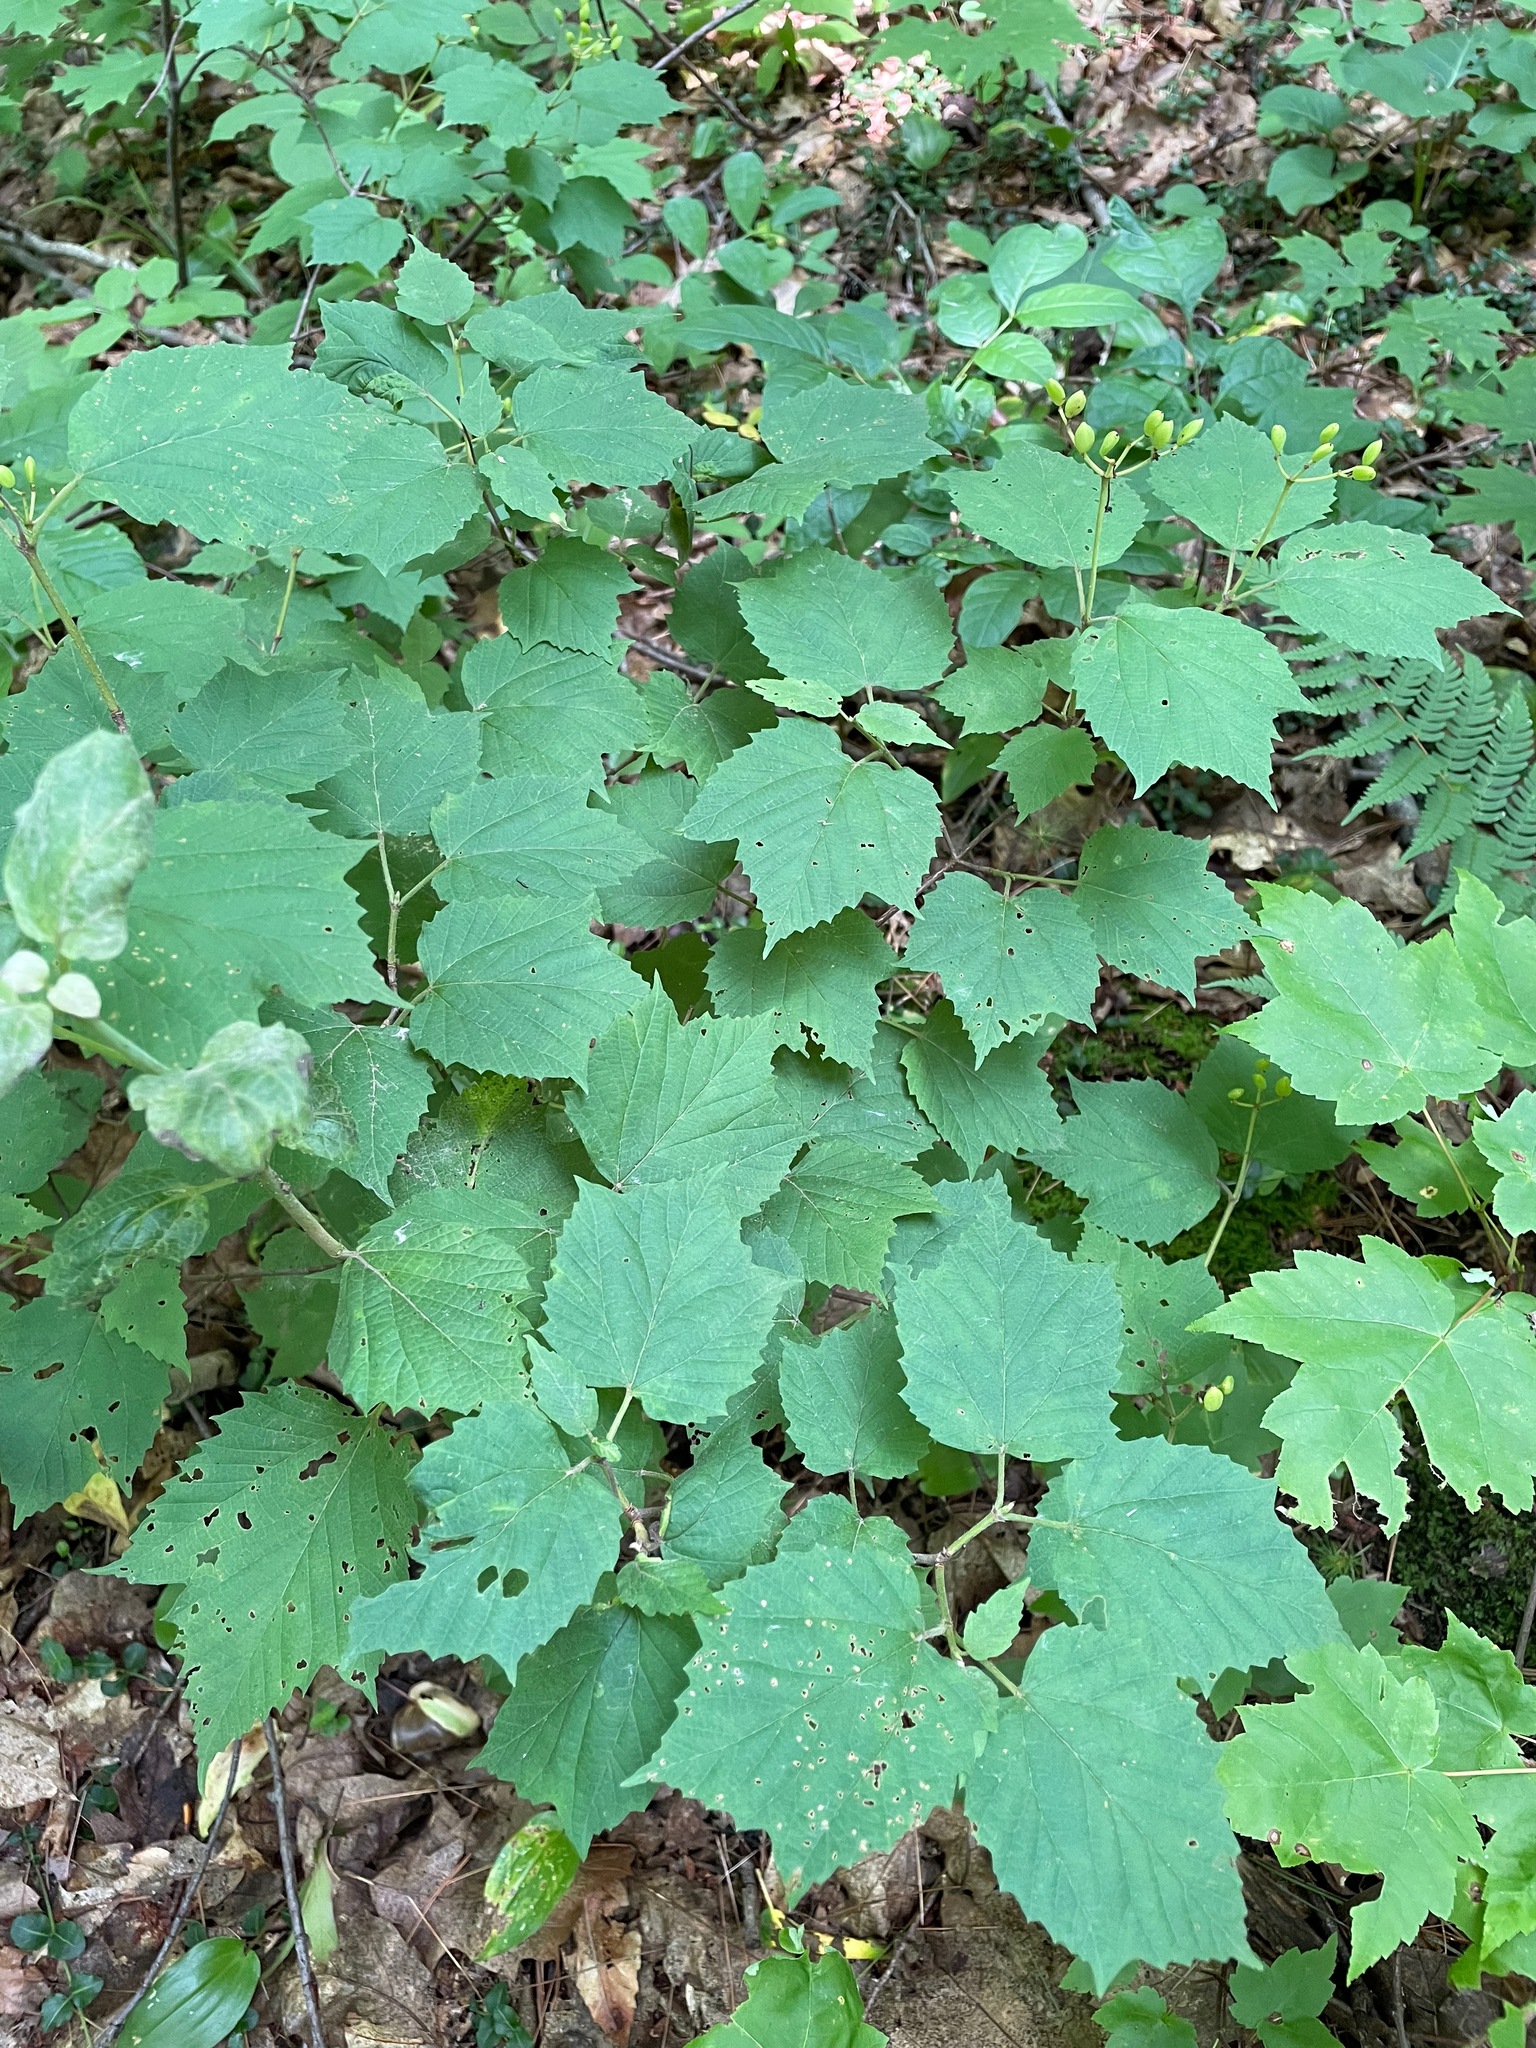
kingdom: Plantae
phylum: Tracheophyta
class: Magnoliopsida
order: Dipsacales
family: Viburnaceae
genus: Viburnum
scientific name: Viburnum acerifolium
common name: Dockmackie
